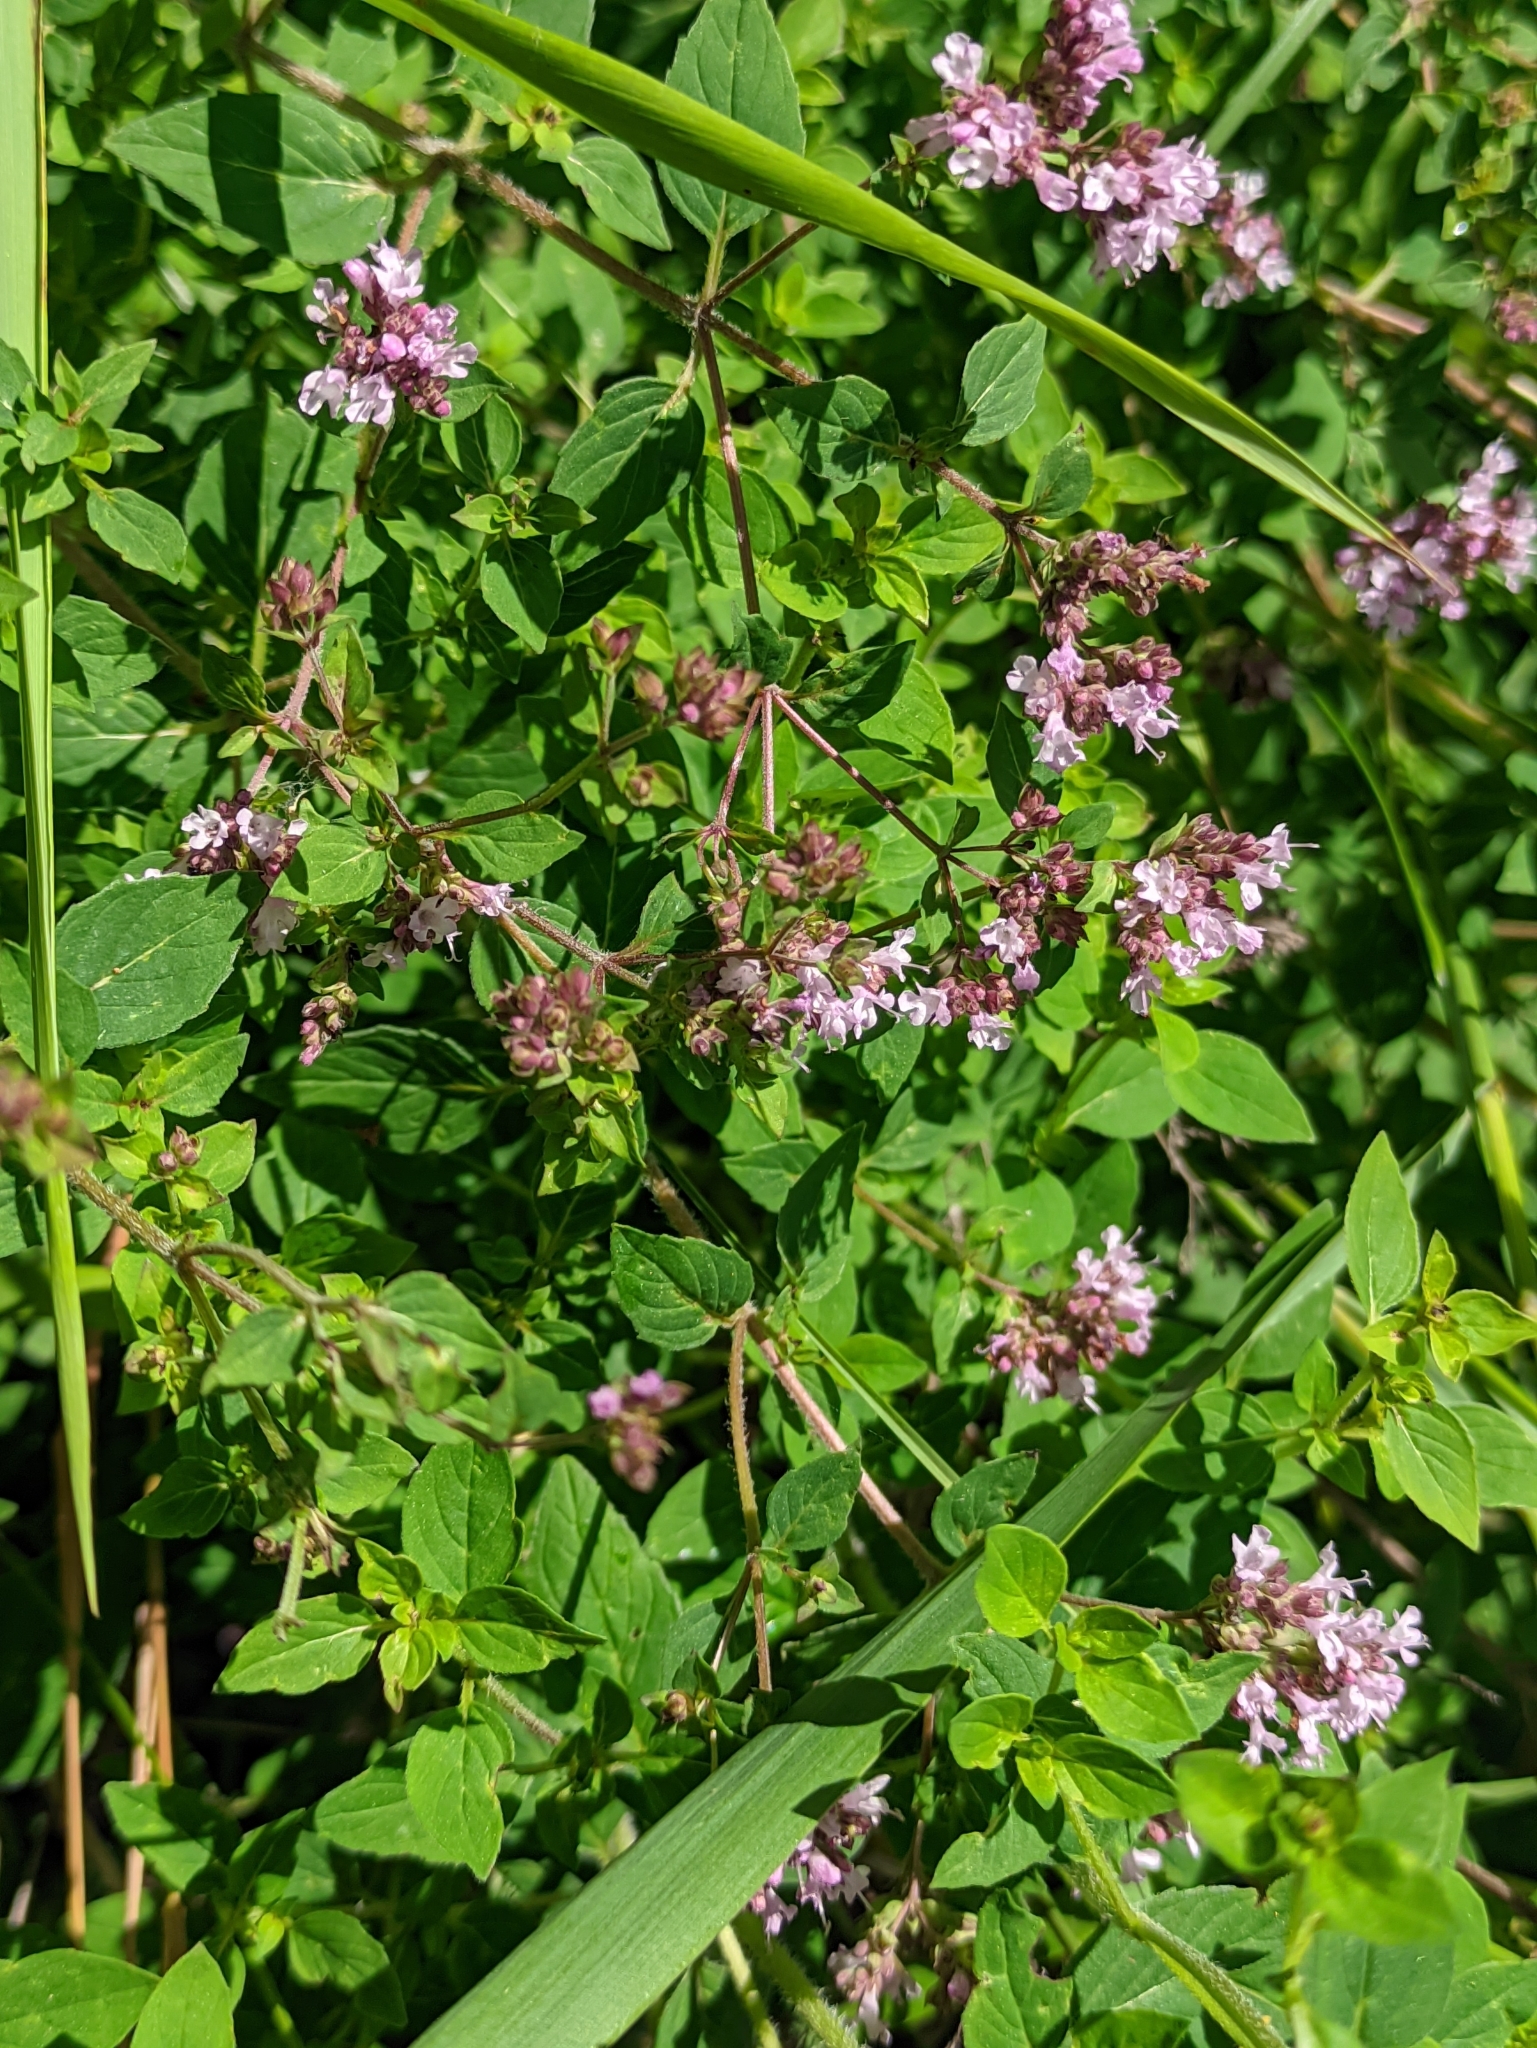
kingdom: Plantae
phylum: Tracheophyta
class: Magnoliopsida
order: Lamiales
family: Lamiaceae
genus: Origanum
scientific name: Origanum vulgare
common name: Wild marjoram
